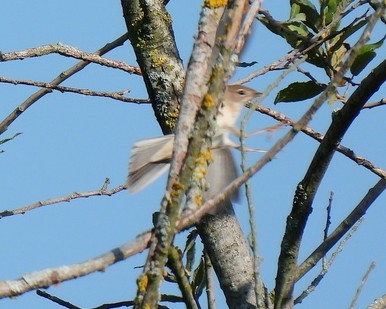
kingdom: Animalia
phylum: Chordata
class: Aves
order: Passeriformes
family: Sylviidae
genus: Sylvia
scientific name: Sylvia curruca
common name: Lesser whitethroat
